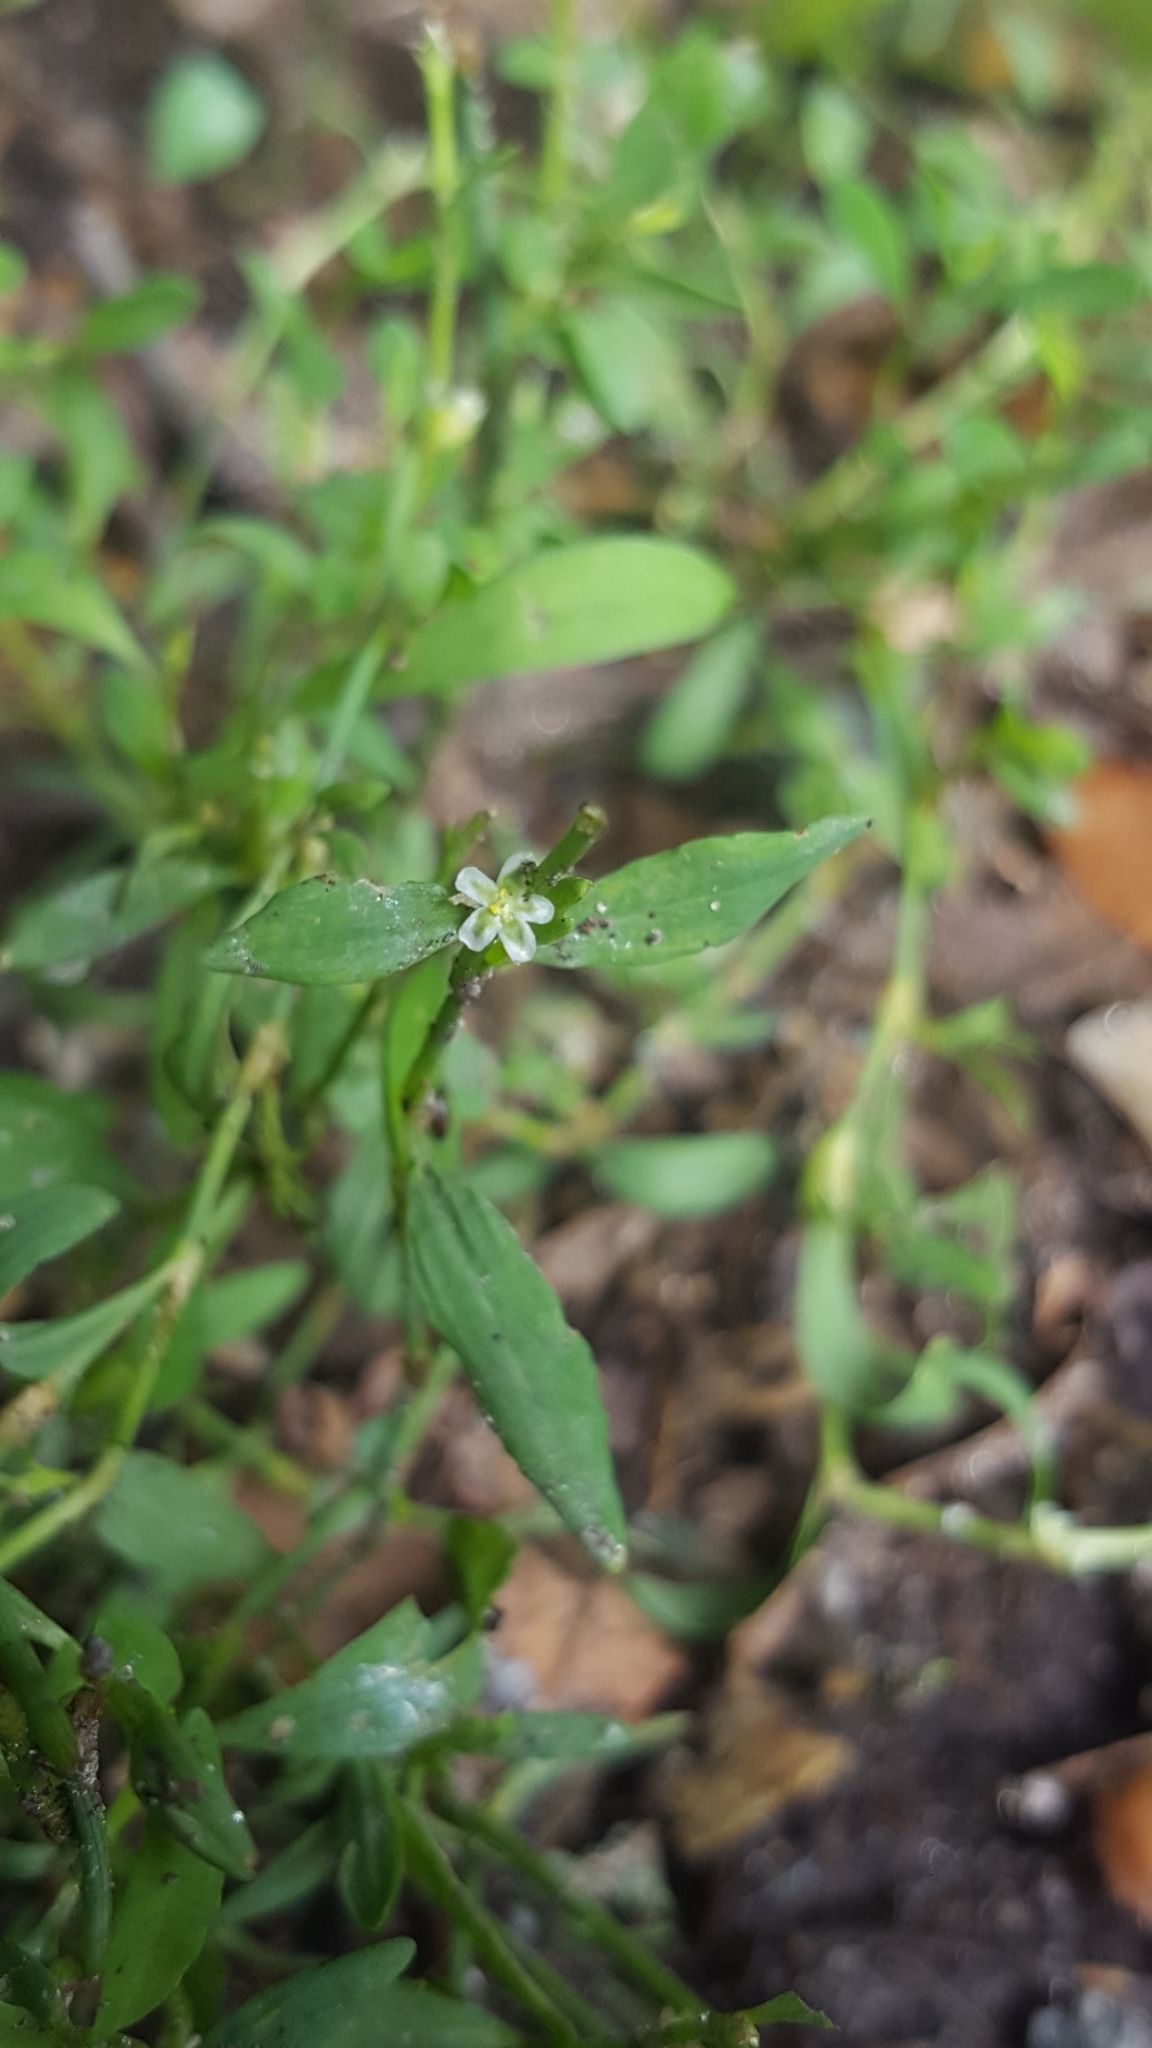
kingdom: Plantae
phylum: Tracheophyta
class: Magnoliopsida
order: Caryophyllales
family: Polygonaceae
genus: Polygonum
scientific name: Polygonum aviculare
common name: Prostrate knotweed
